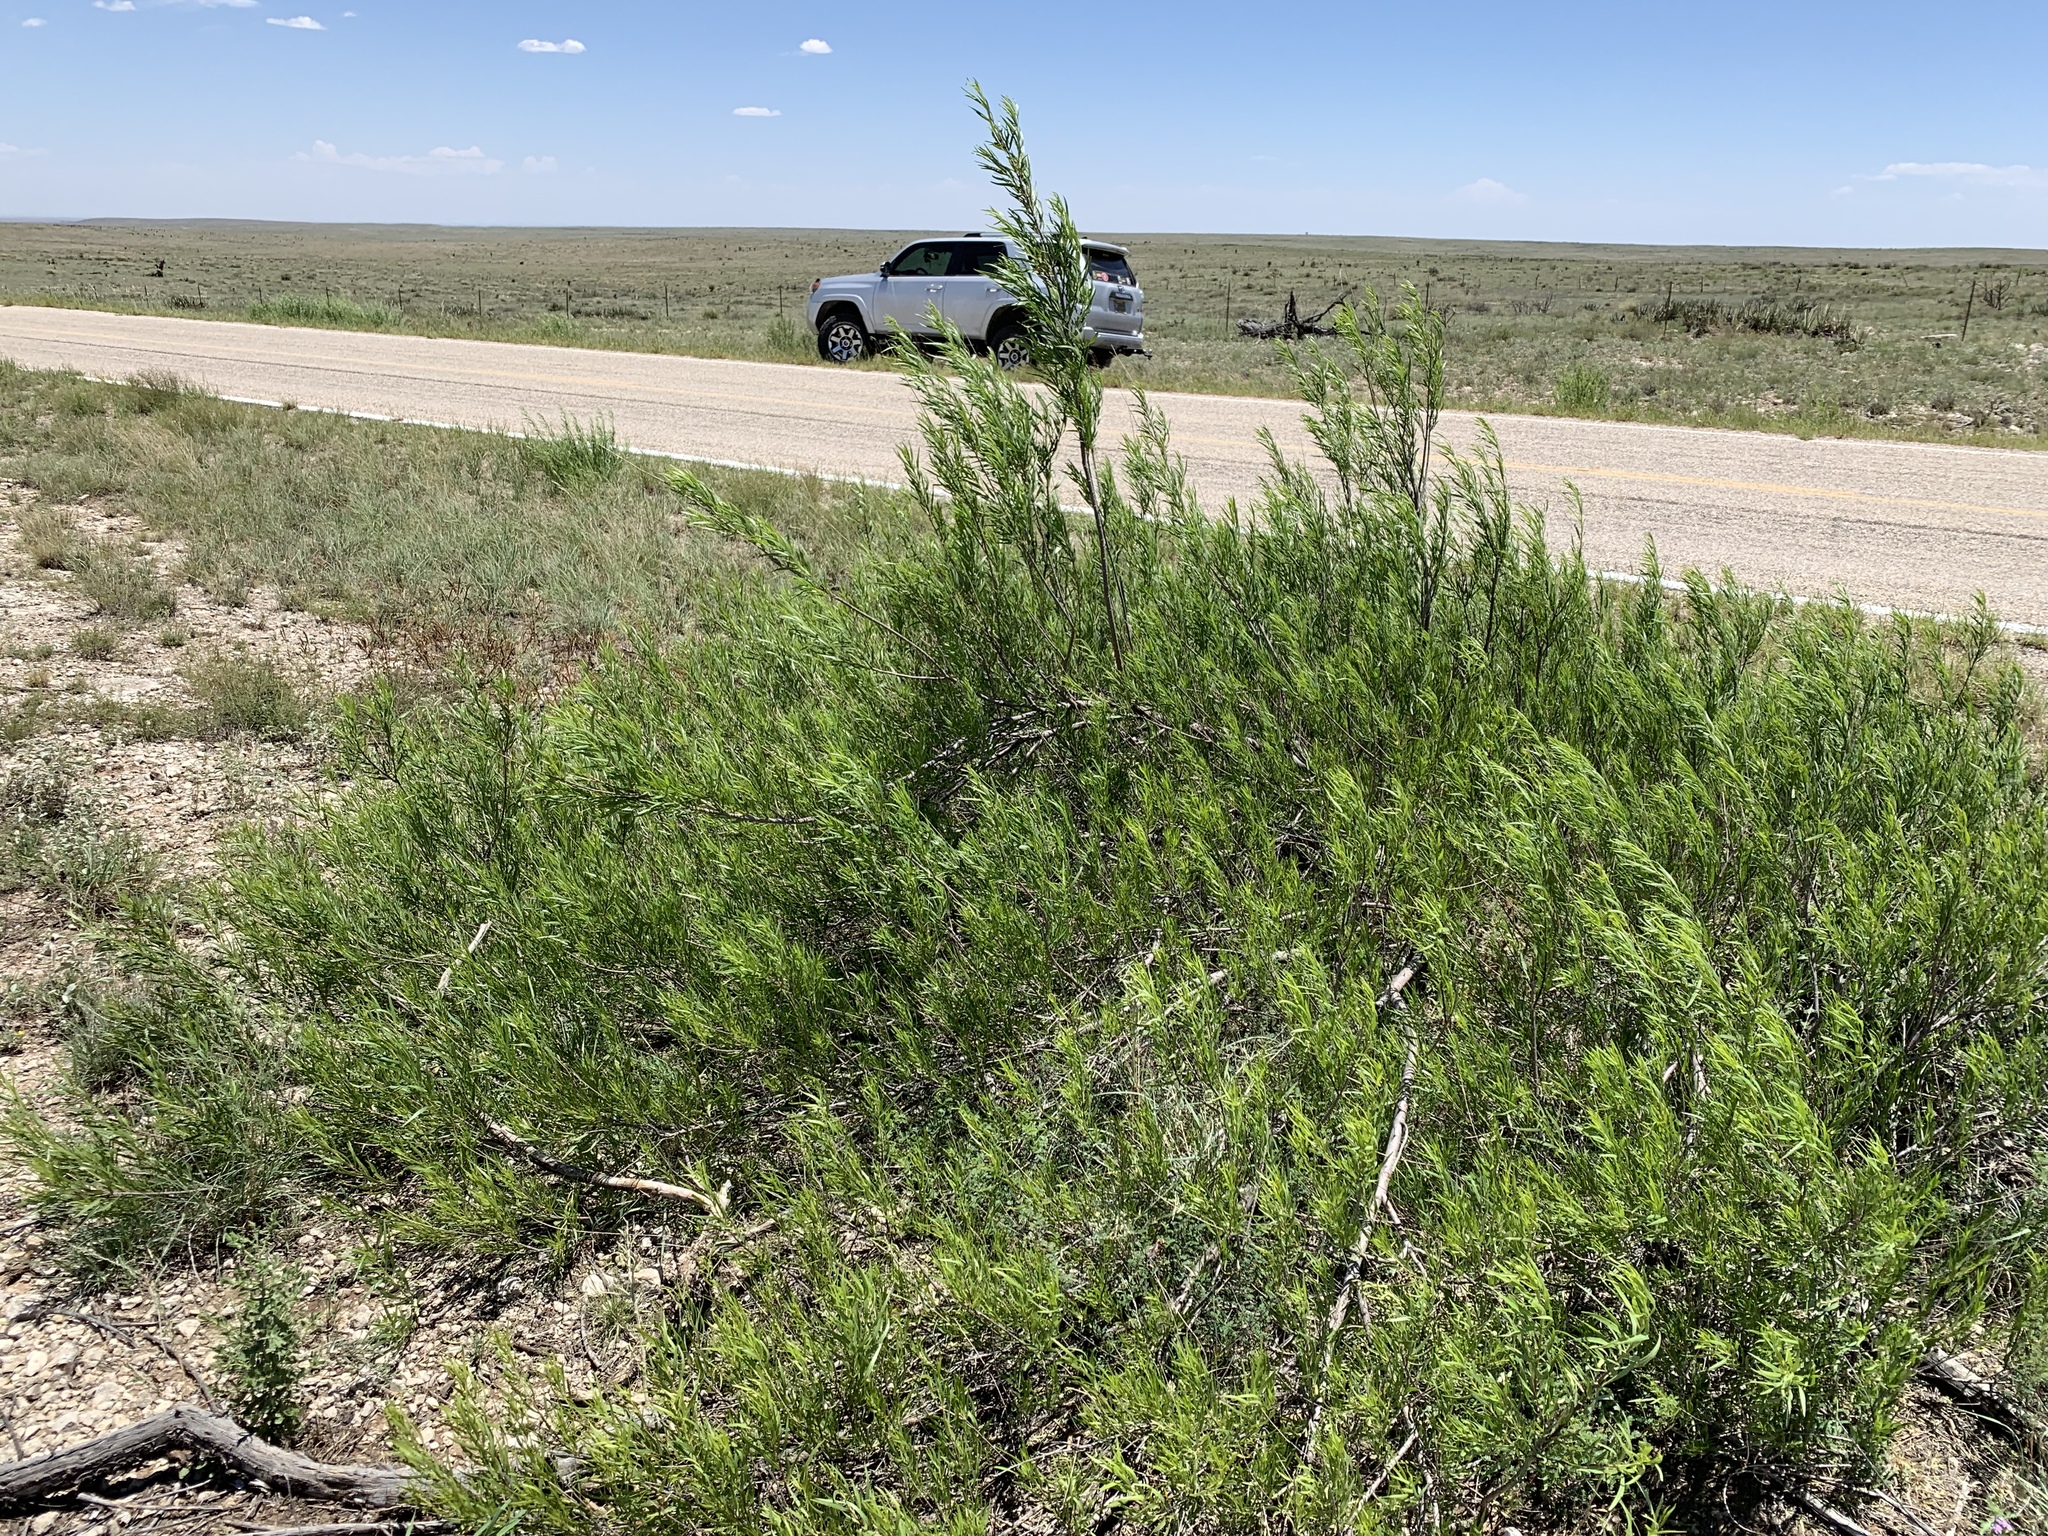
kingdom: Plantae
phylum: Tracheophyta
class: Magnoliopsida
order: Lamiales
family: Bignoniaceae
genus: Chilopsis
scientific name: Chilopsis linearis
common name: Desert-willow
